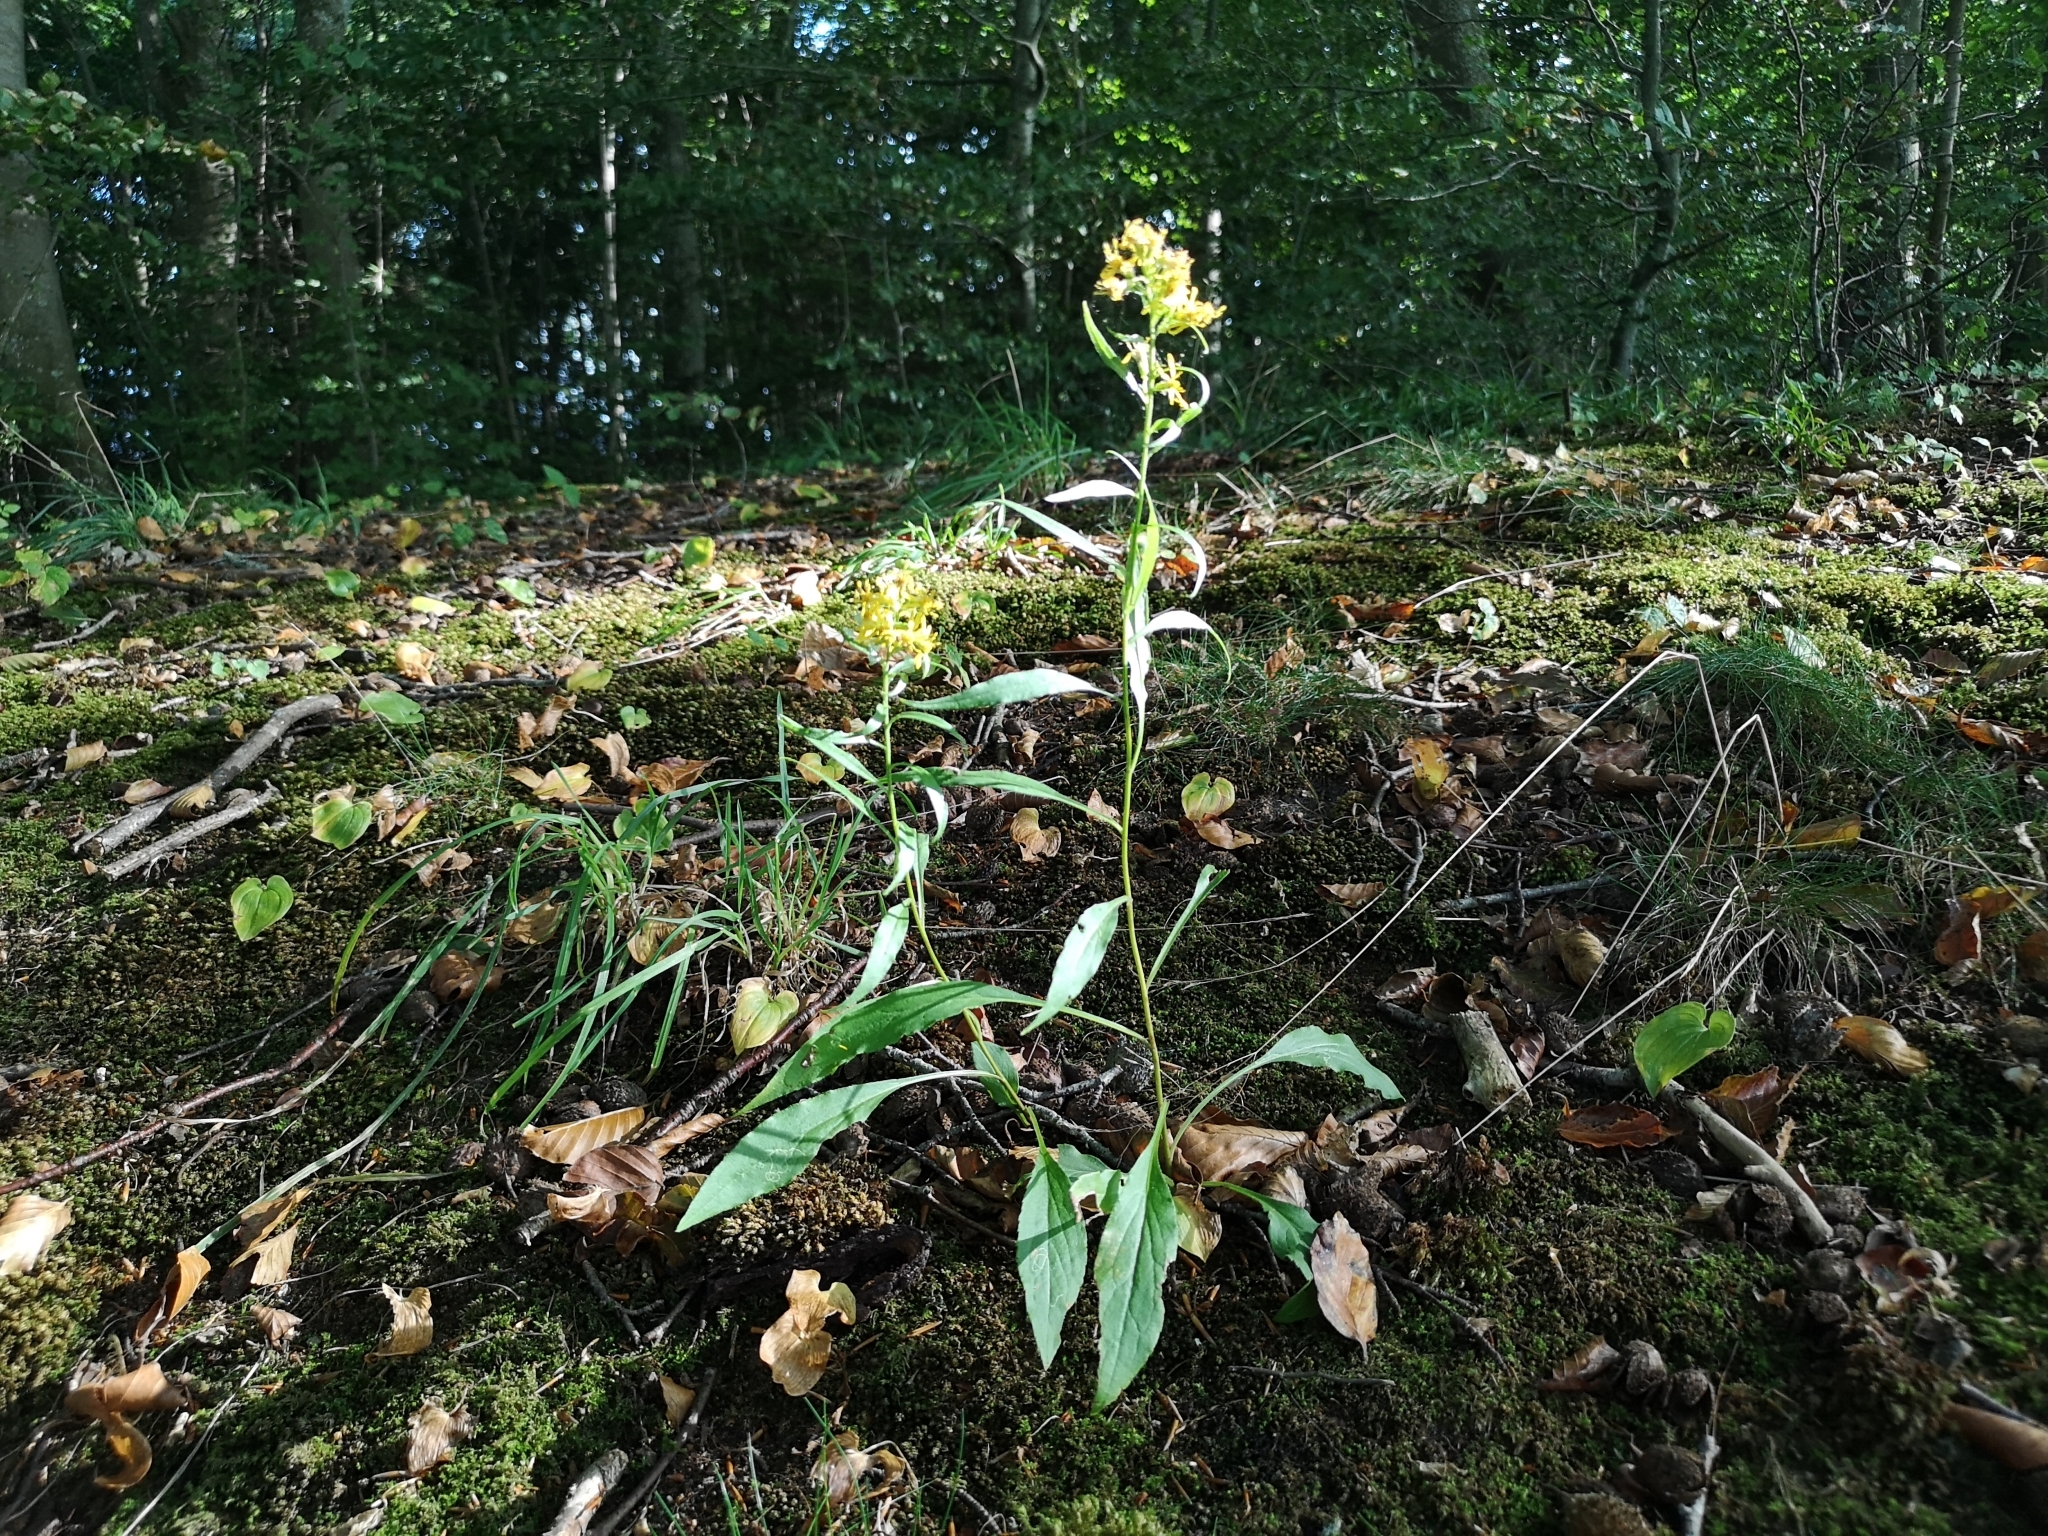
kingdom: Plantae
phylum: Tracheophyta
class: Magnoliopsida
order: Asterales
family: Asteraceae
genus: Solidago
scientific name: Solidago virgaurea
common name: Goldenrod
